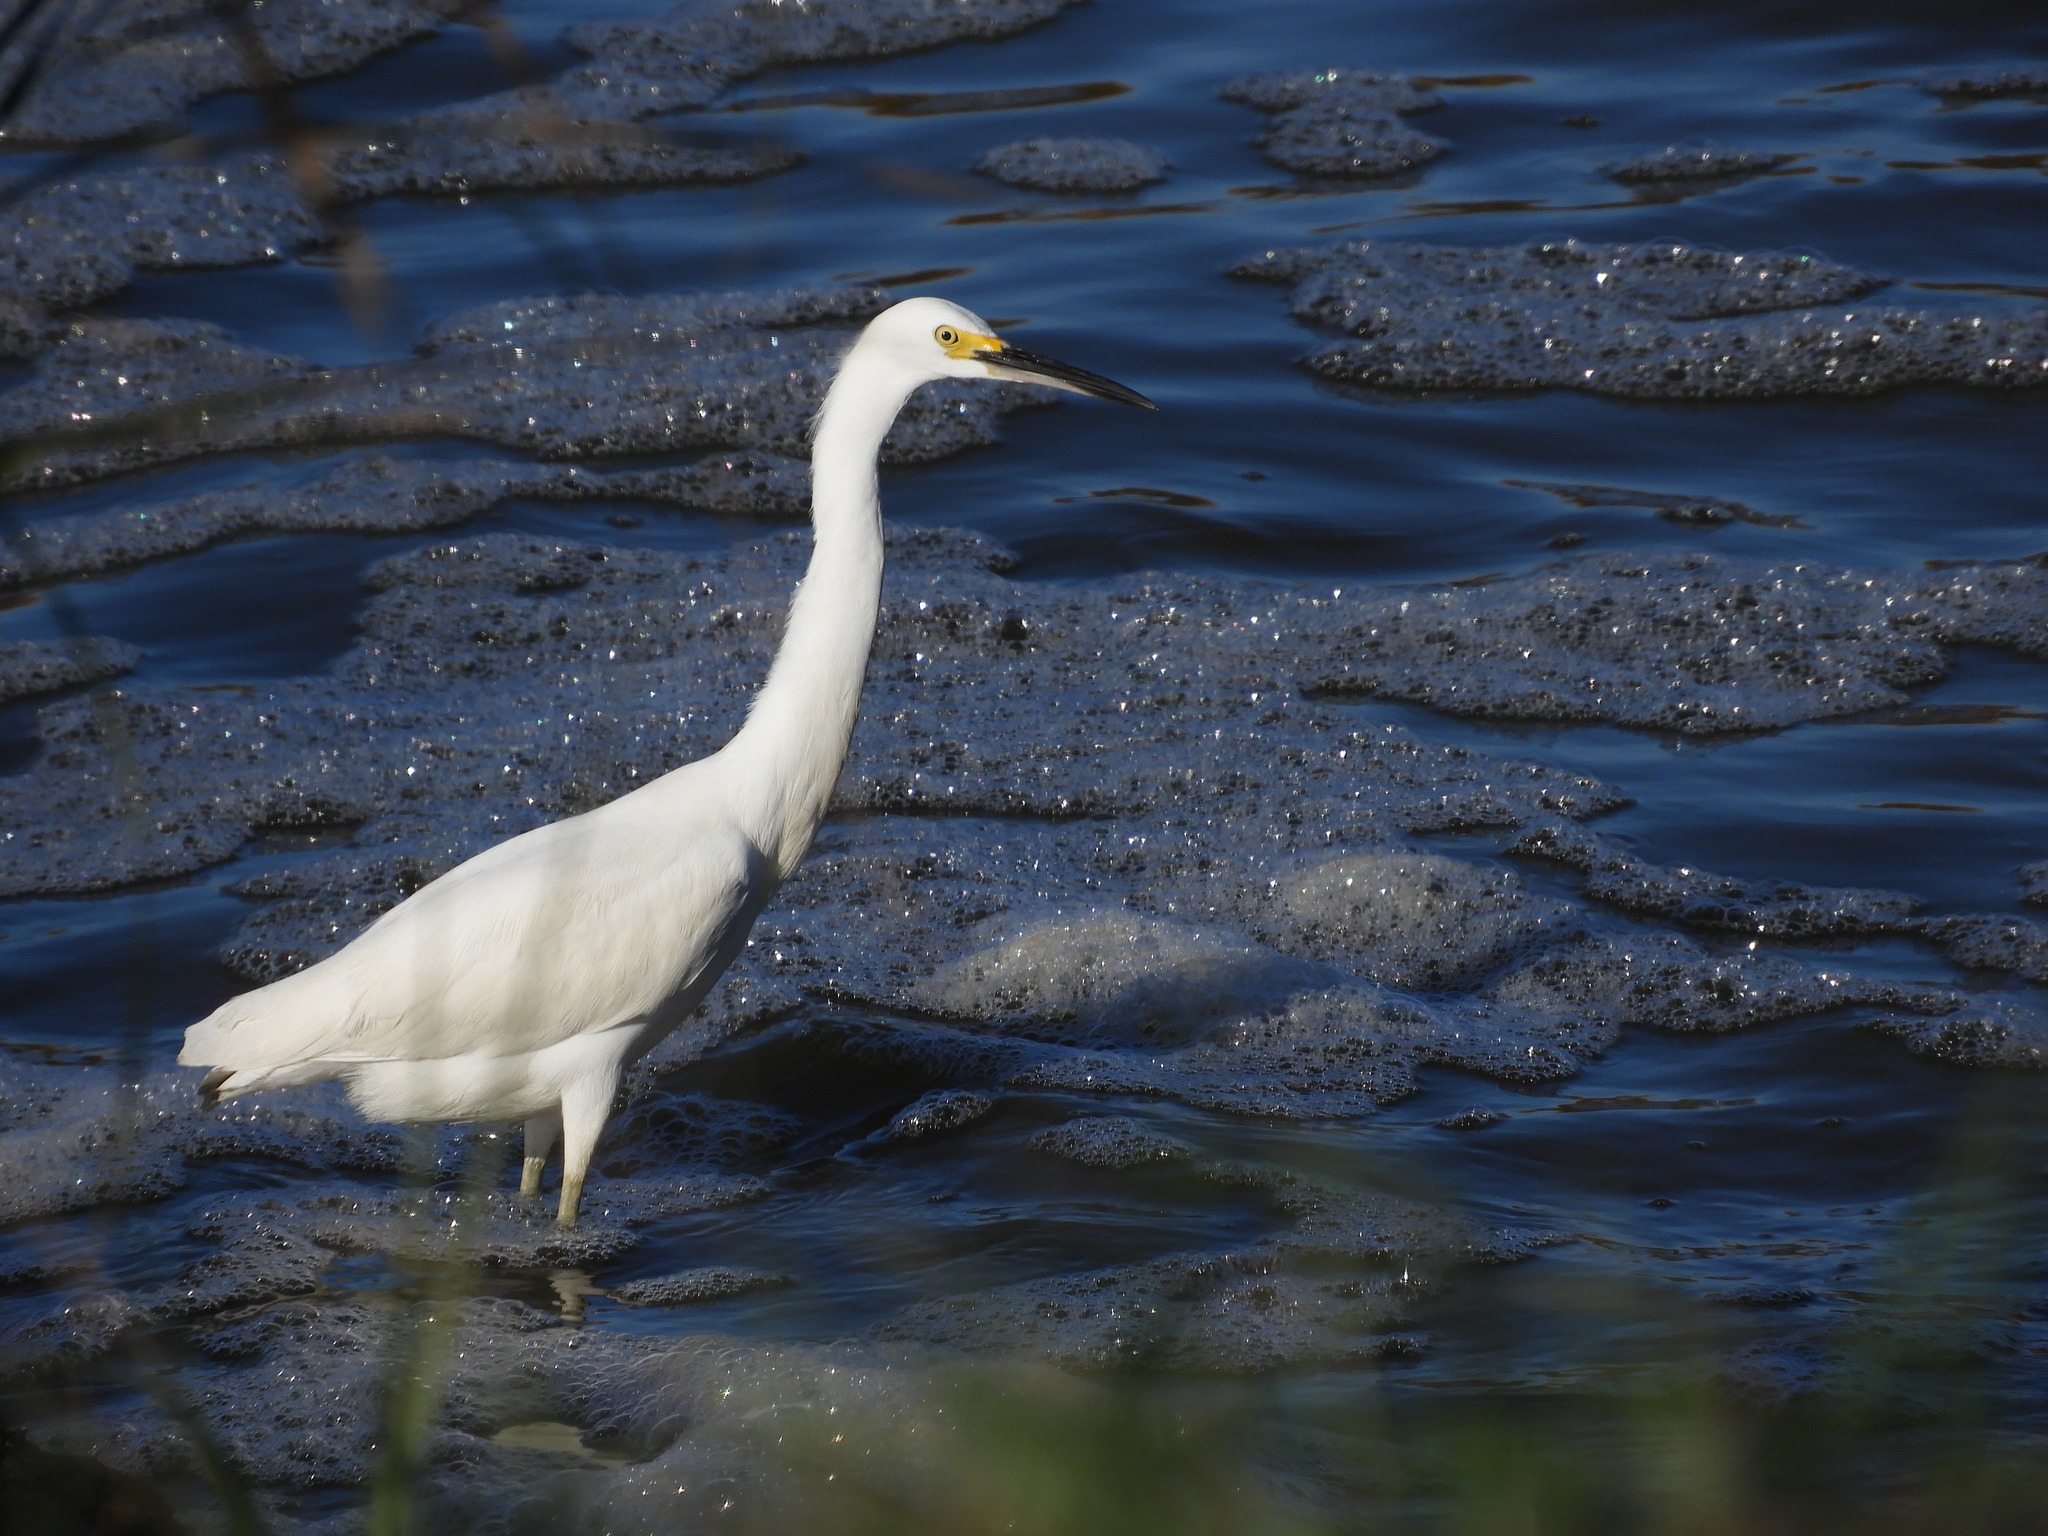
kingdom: Animalia
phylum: Chordata
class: Aves
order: Pelecaniformes
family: Ardeidae
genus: Egretta
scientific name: Egretta thula
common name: Snowy egret
